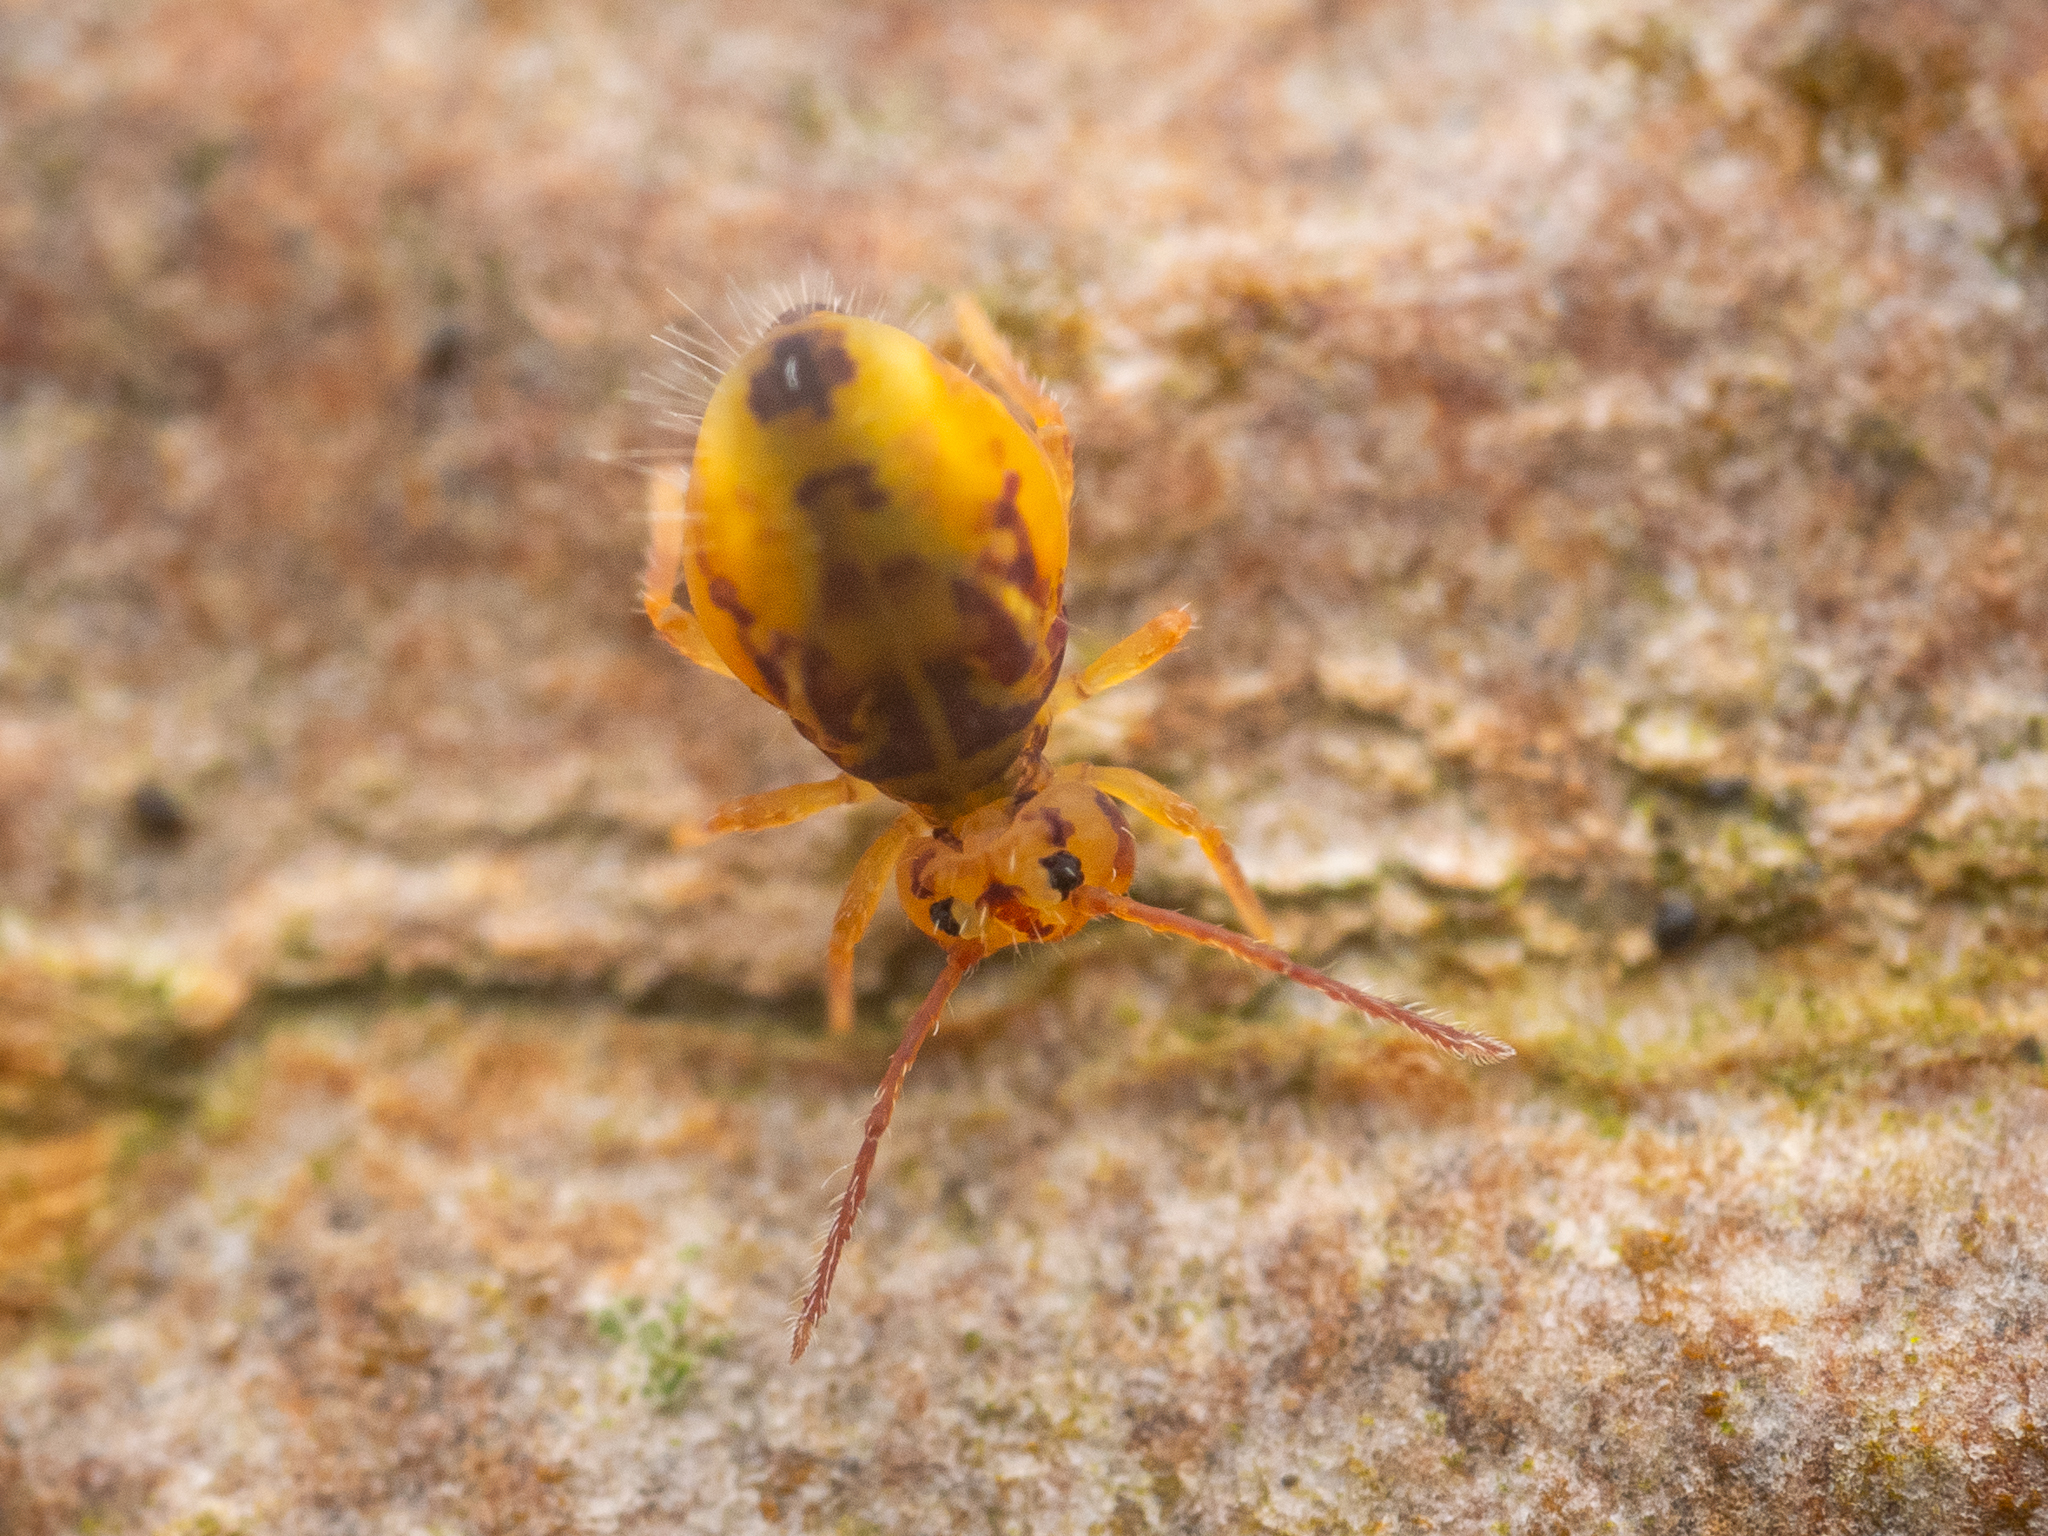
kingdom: Animalia
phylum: Arthropoda
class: Collembola
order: Symphypleona
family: Dicyrtomidae
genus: Dicyrtomina
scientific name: Dicyrtomina ornata
